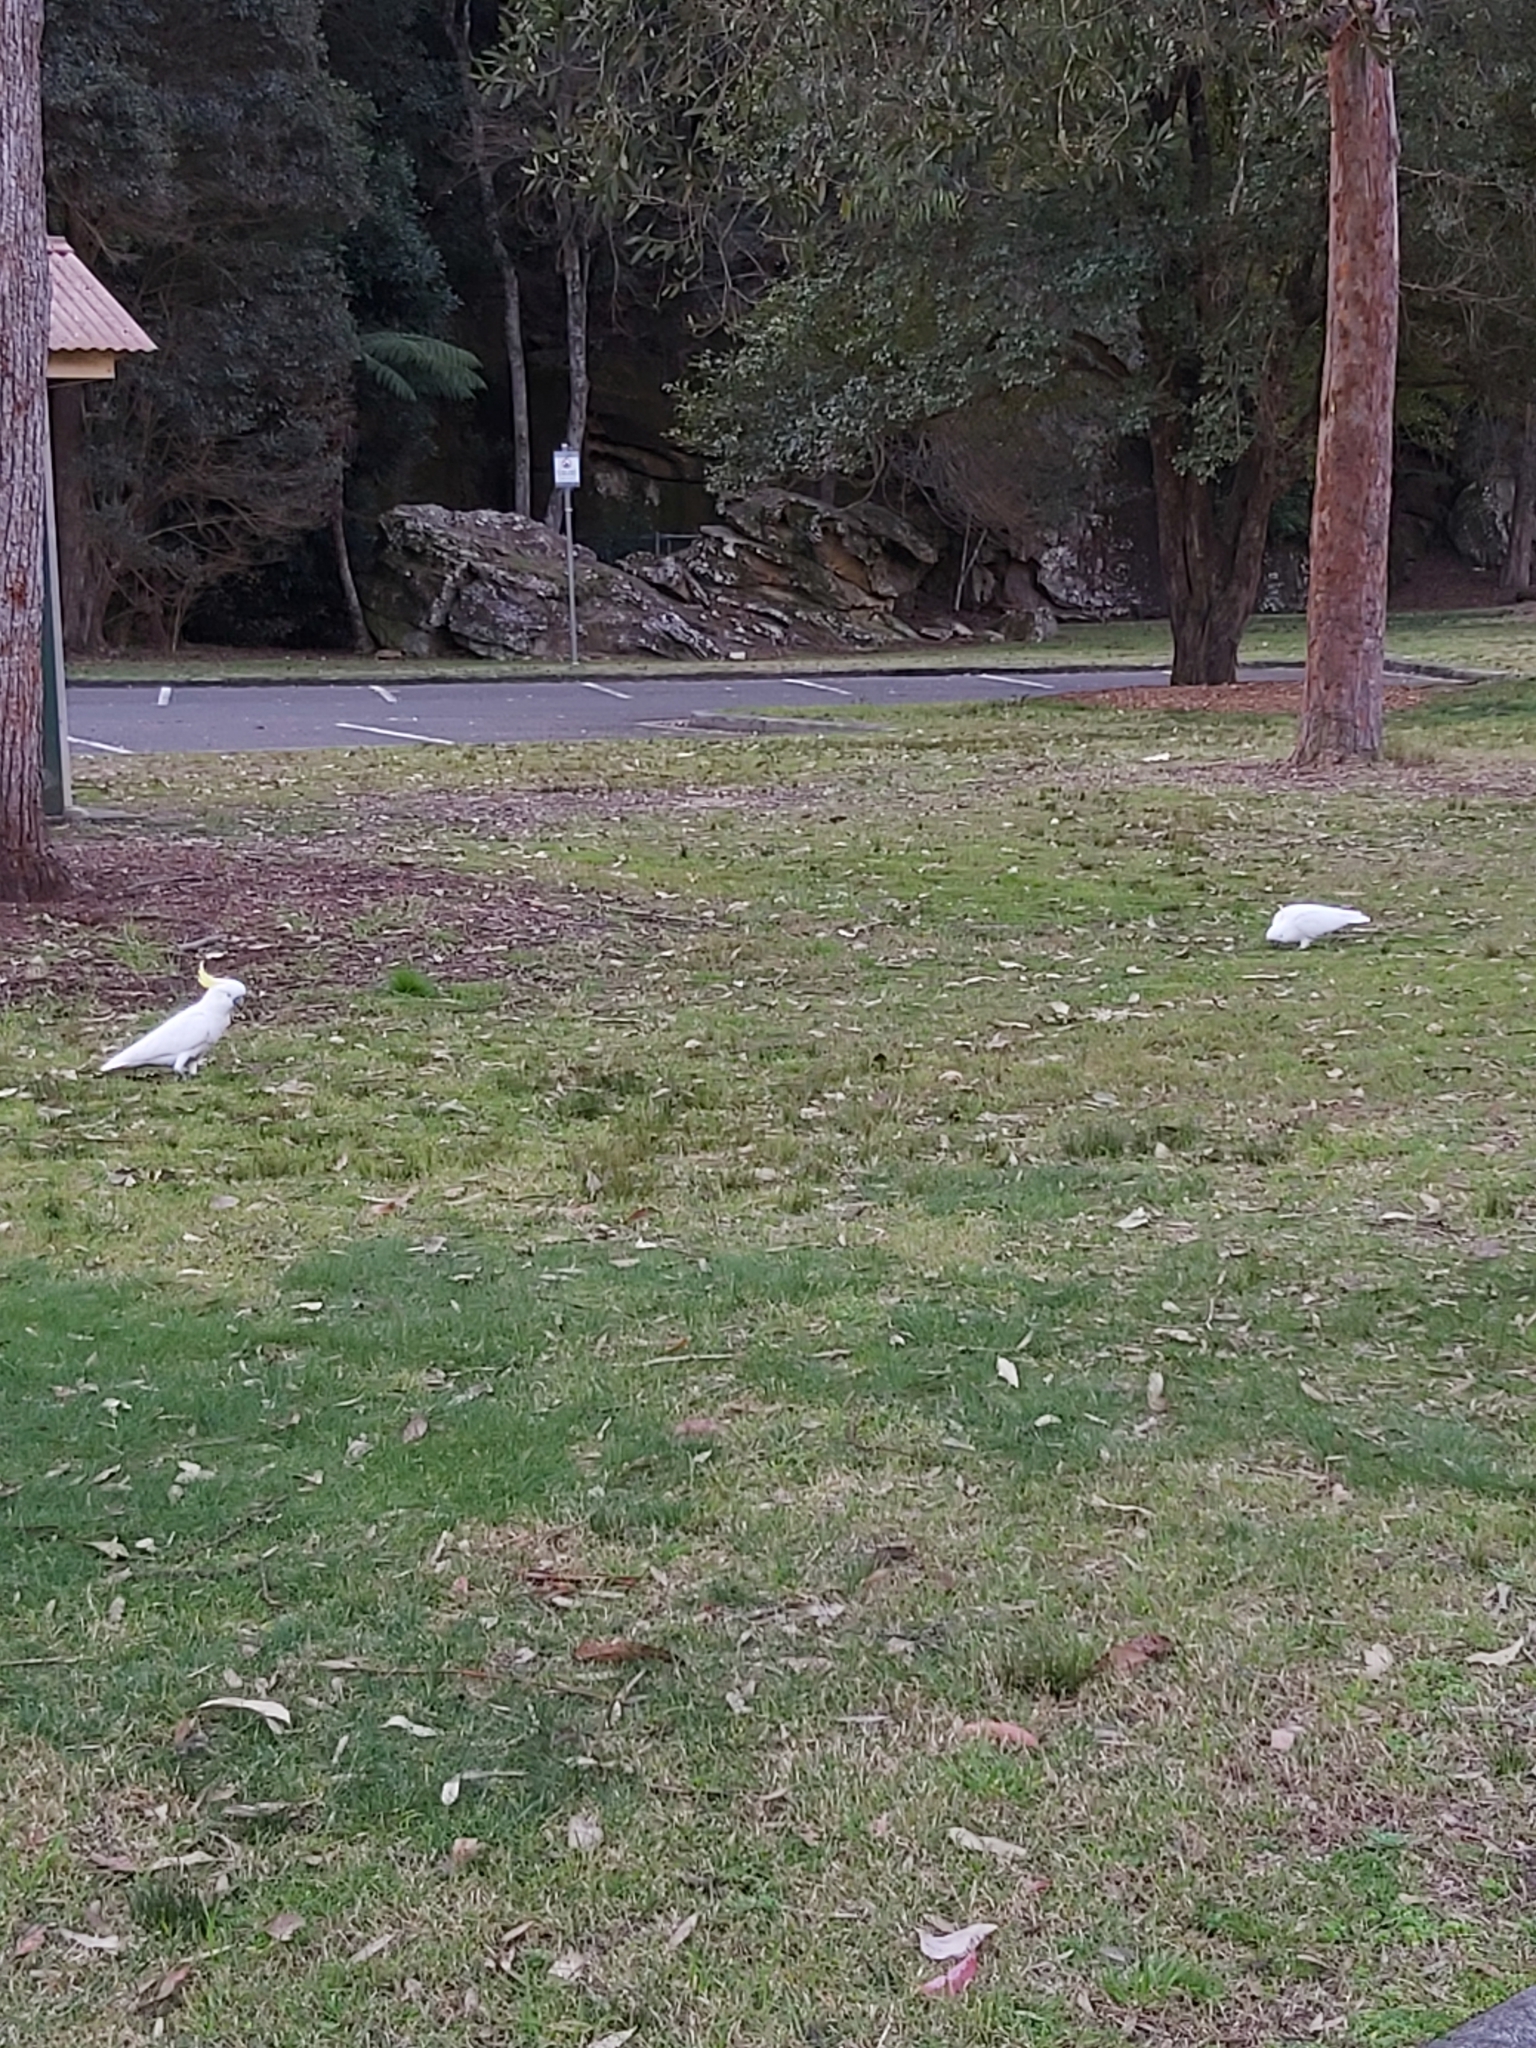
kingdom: Animalia
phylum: Chordata
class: Aves
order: Psittaciformes
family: Psittacidae
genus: Cacatua
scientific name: Cacatua galerita
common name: Sulphur-crested cockatoo
